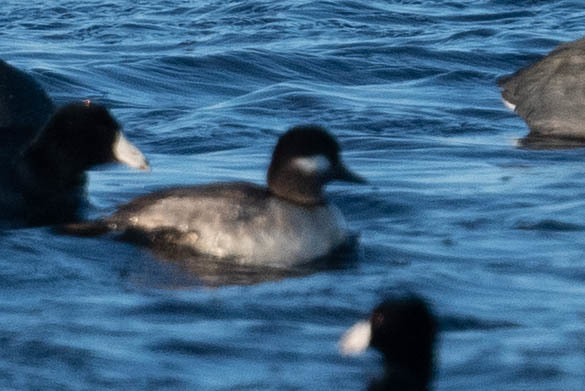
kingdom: Animalia
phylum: Chordata
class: Aves
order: Anseriformes
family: Anatidae
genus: Bucephala
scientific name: Bucephala albeola
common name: Bufflehead
